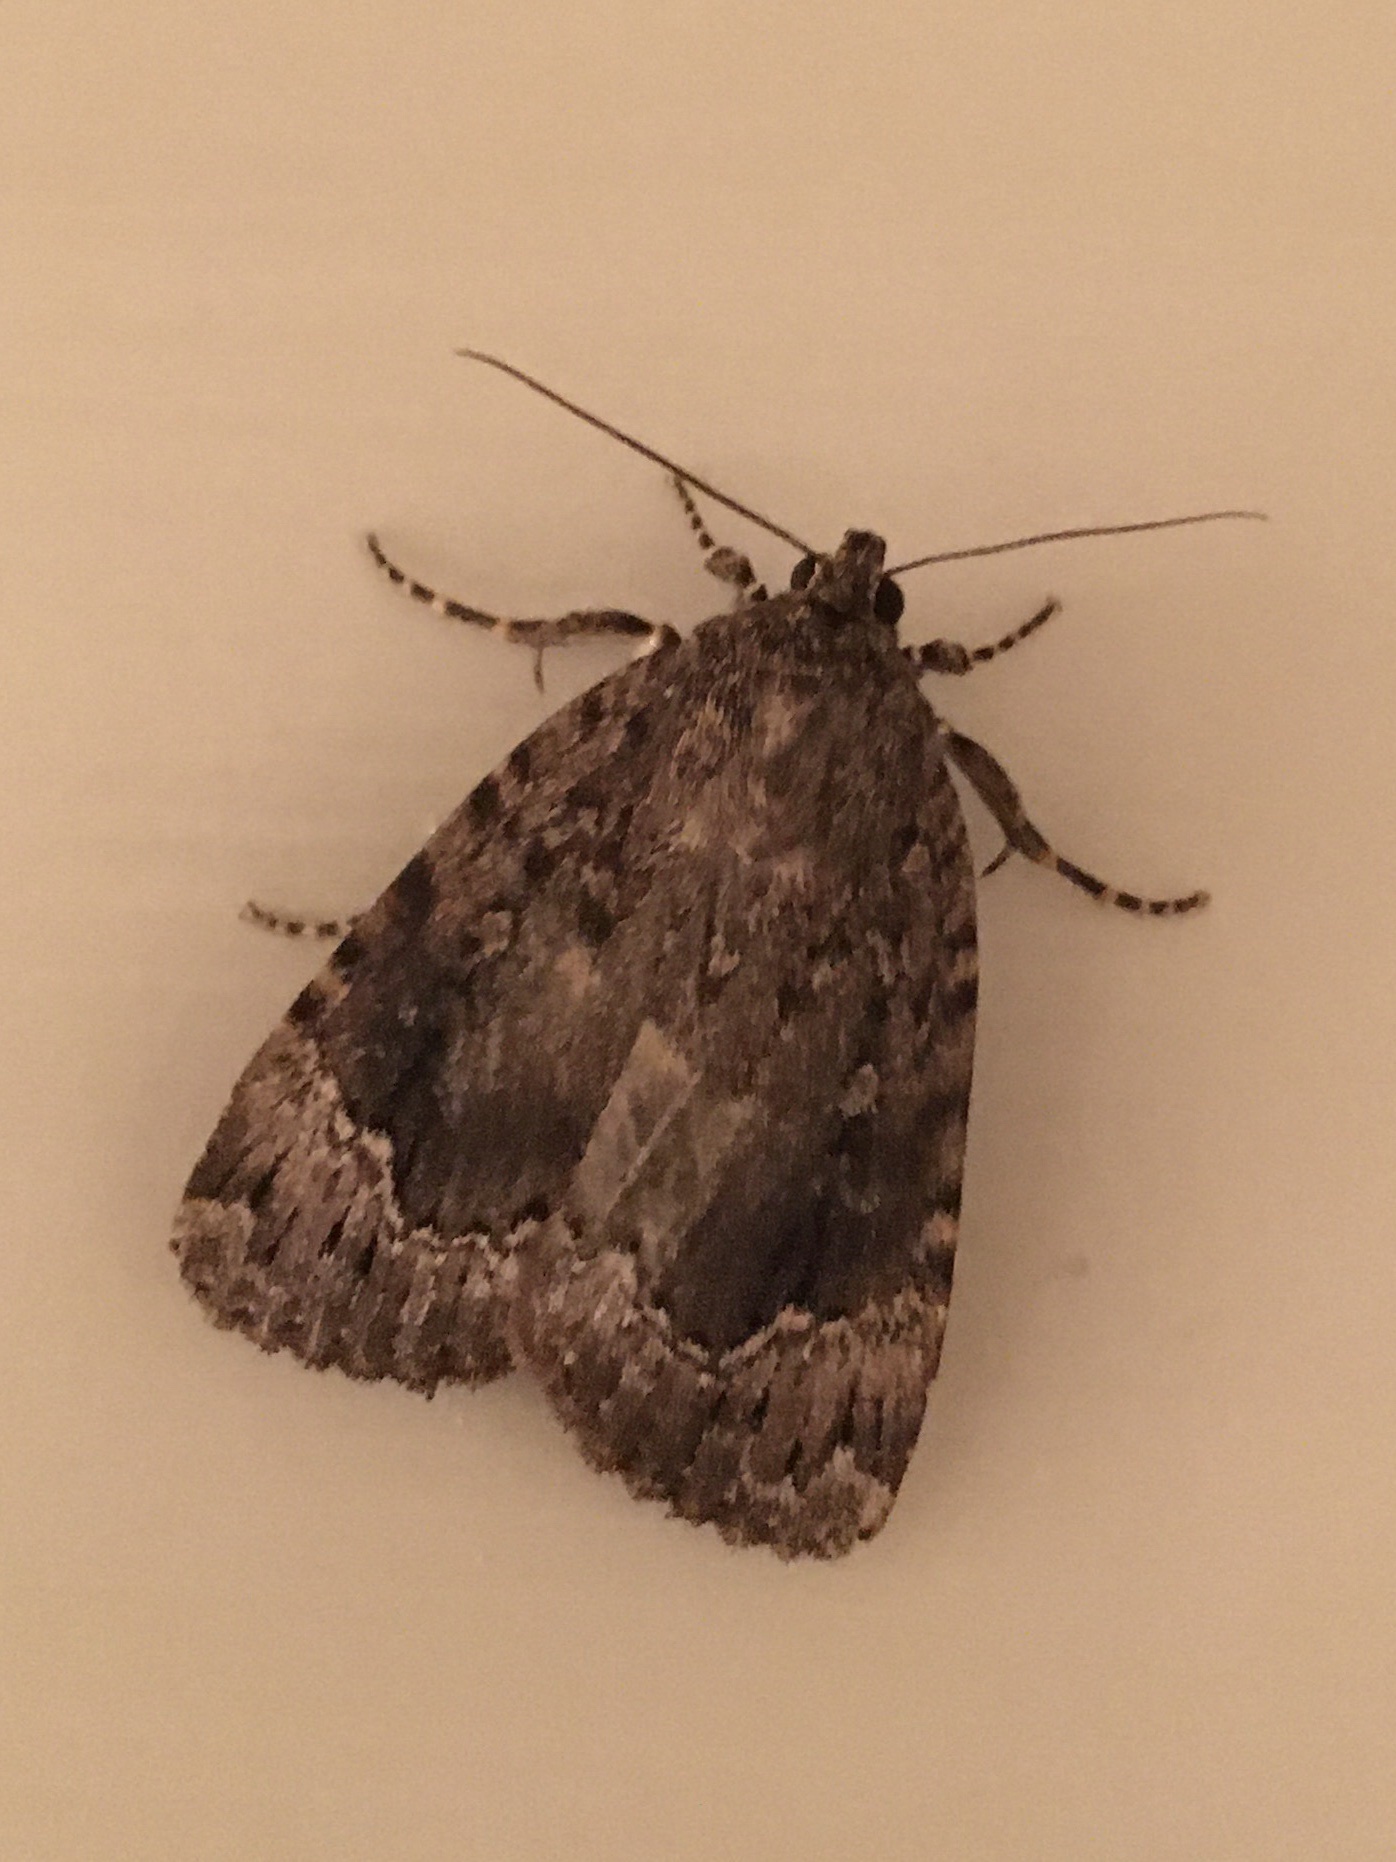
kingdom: Animalia
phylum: Arthropoda
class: Insecta
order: Lepidoptera
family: Noctuidae
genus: Amphipyra
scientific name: Amphipyra pyramidoides
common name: American copper underwing
